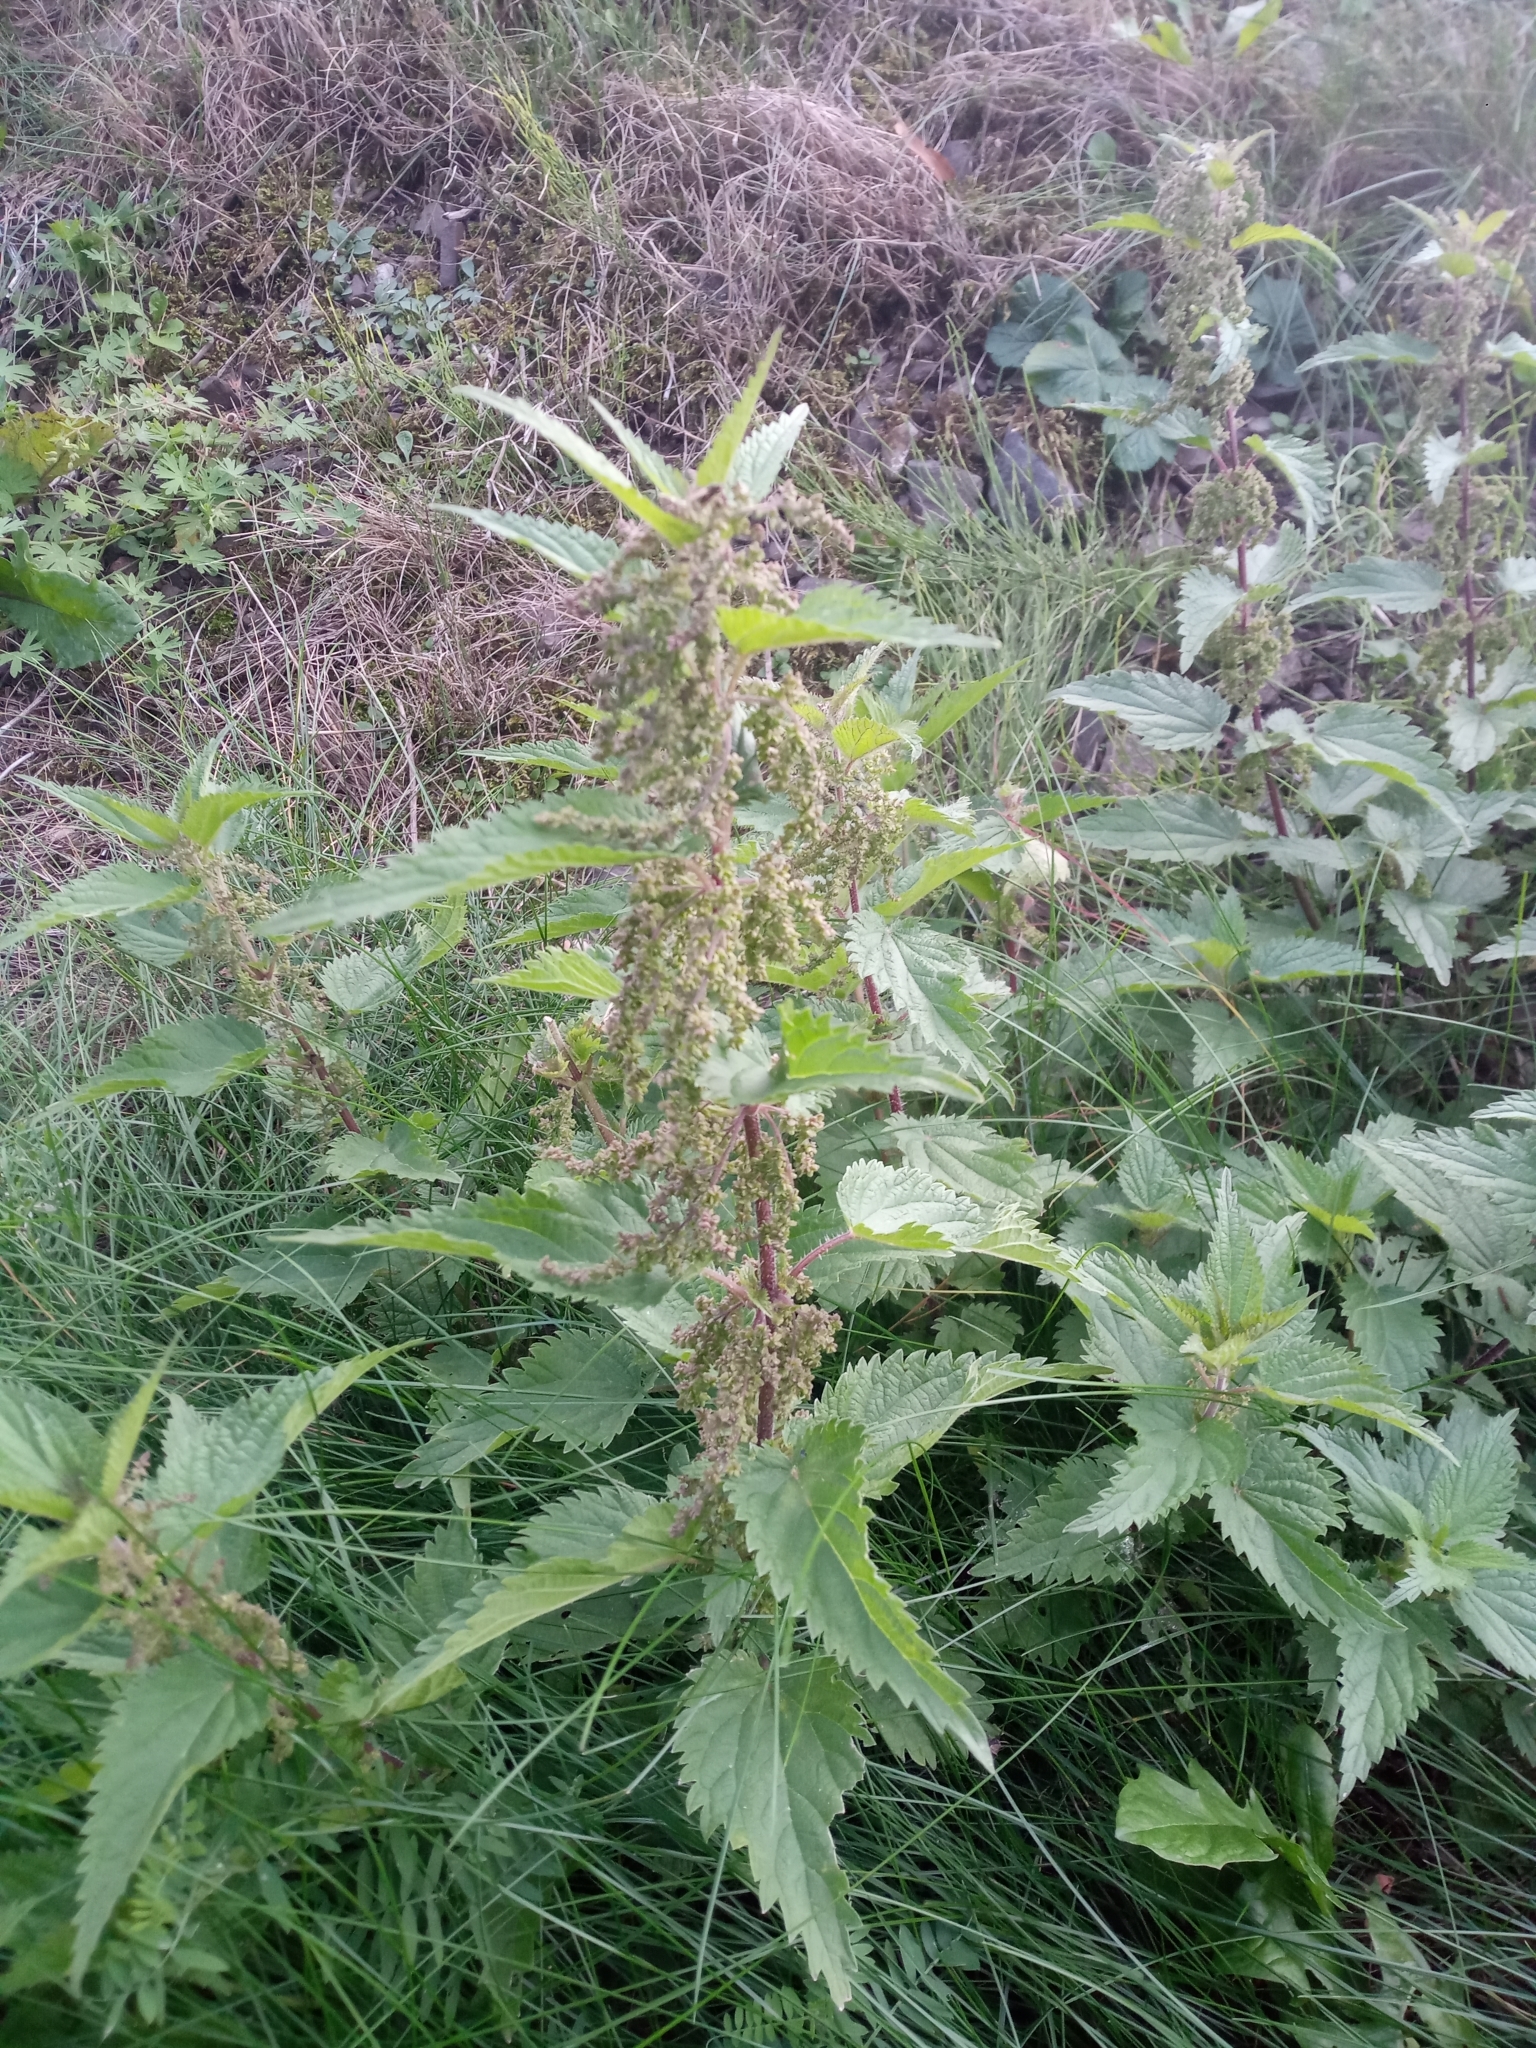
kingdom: Plantae
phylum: Tracheophyta
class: Magnoliopsida
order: Rosales
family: Urticaceae
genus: Urtica
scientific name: Urtica dioica
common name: Common nettle
